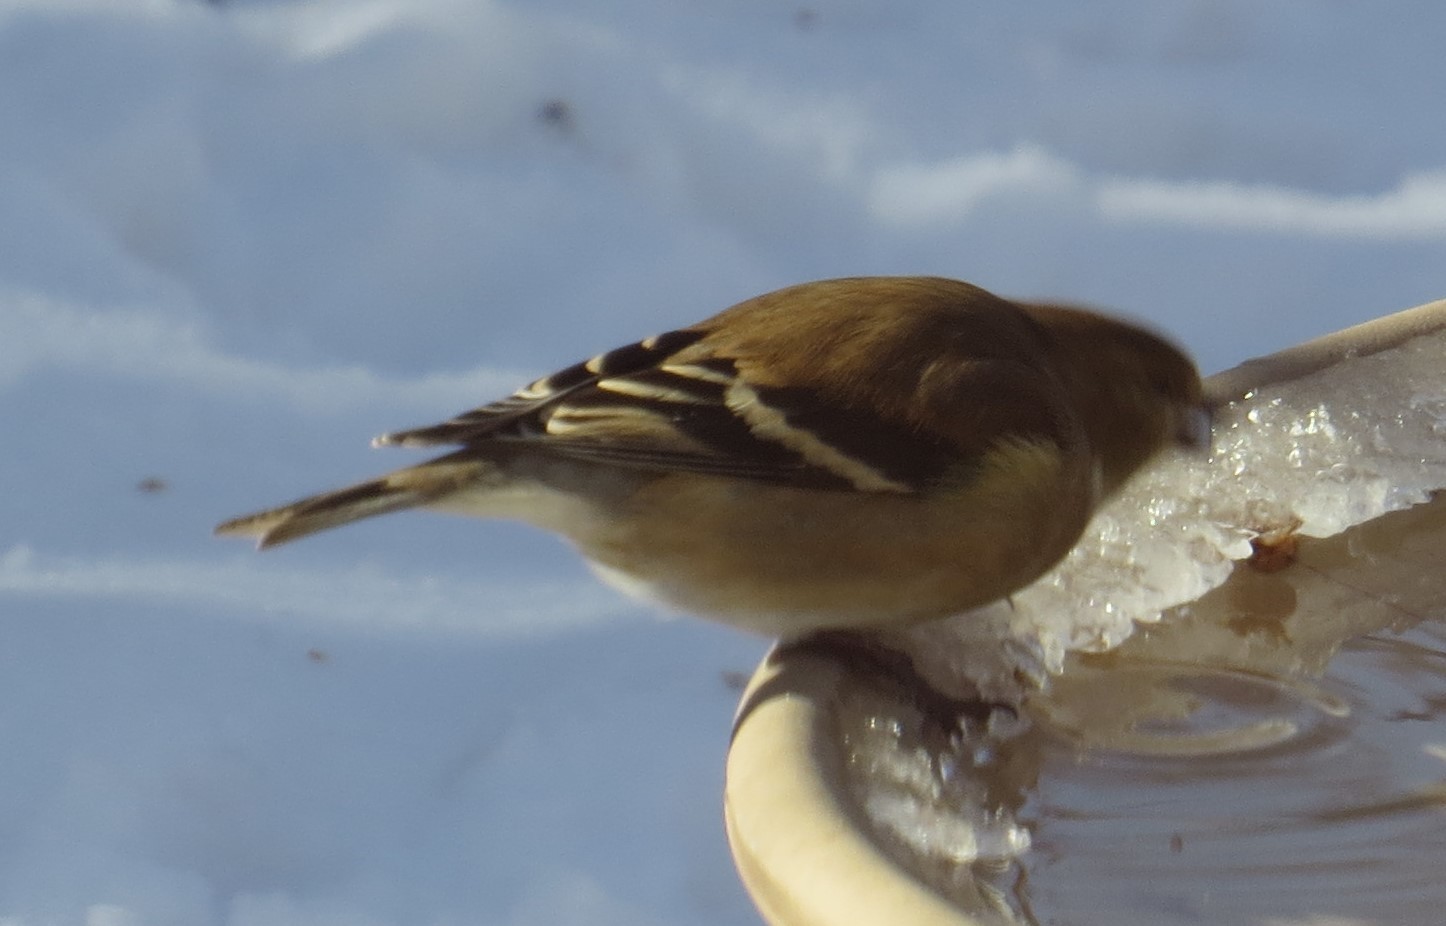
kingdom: Animalia
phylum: Chordata
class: Aves
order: Passeriformes
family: Fringillidae
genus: Spinus
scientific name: Spinus tristis
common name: American goldfinch
